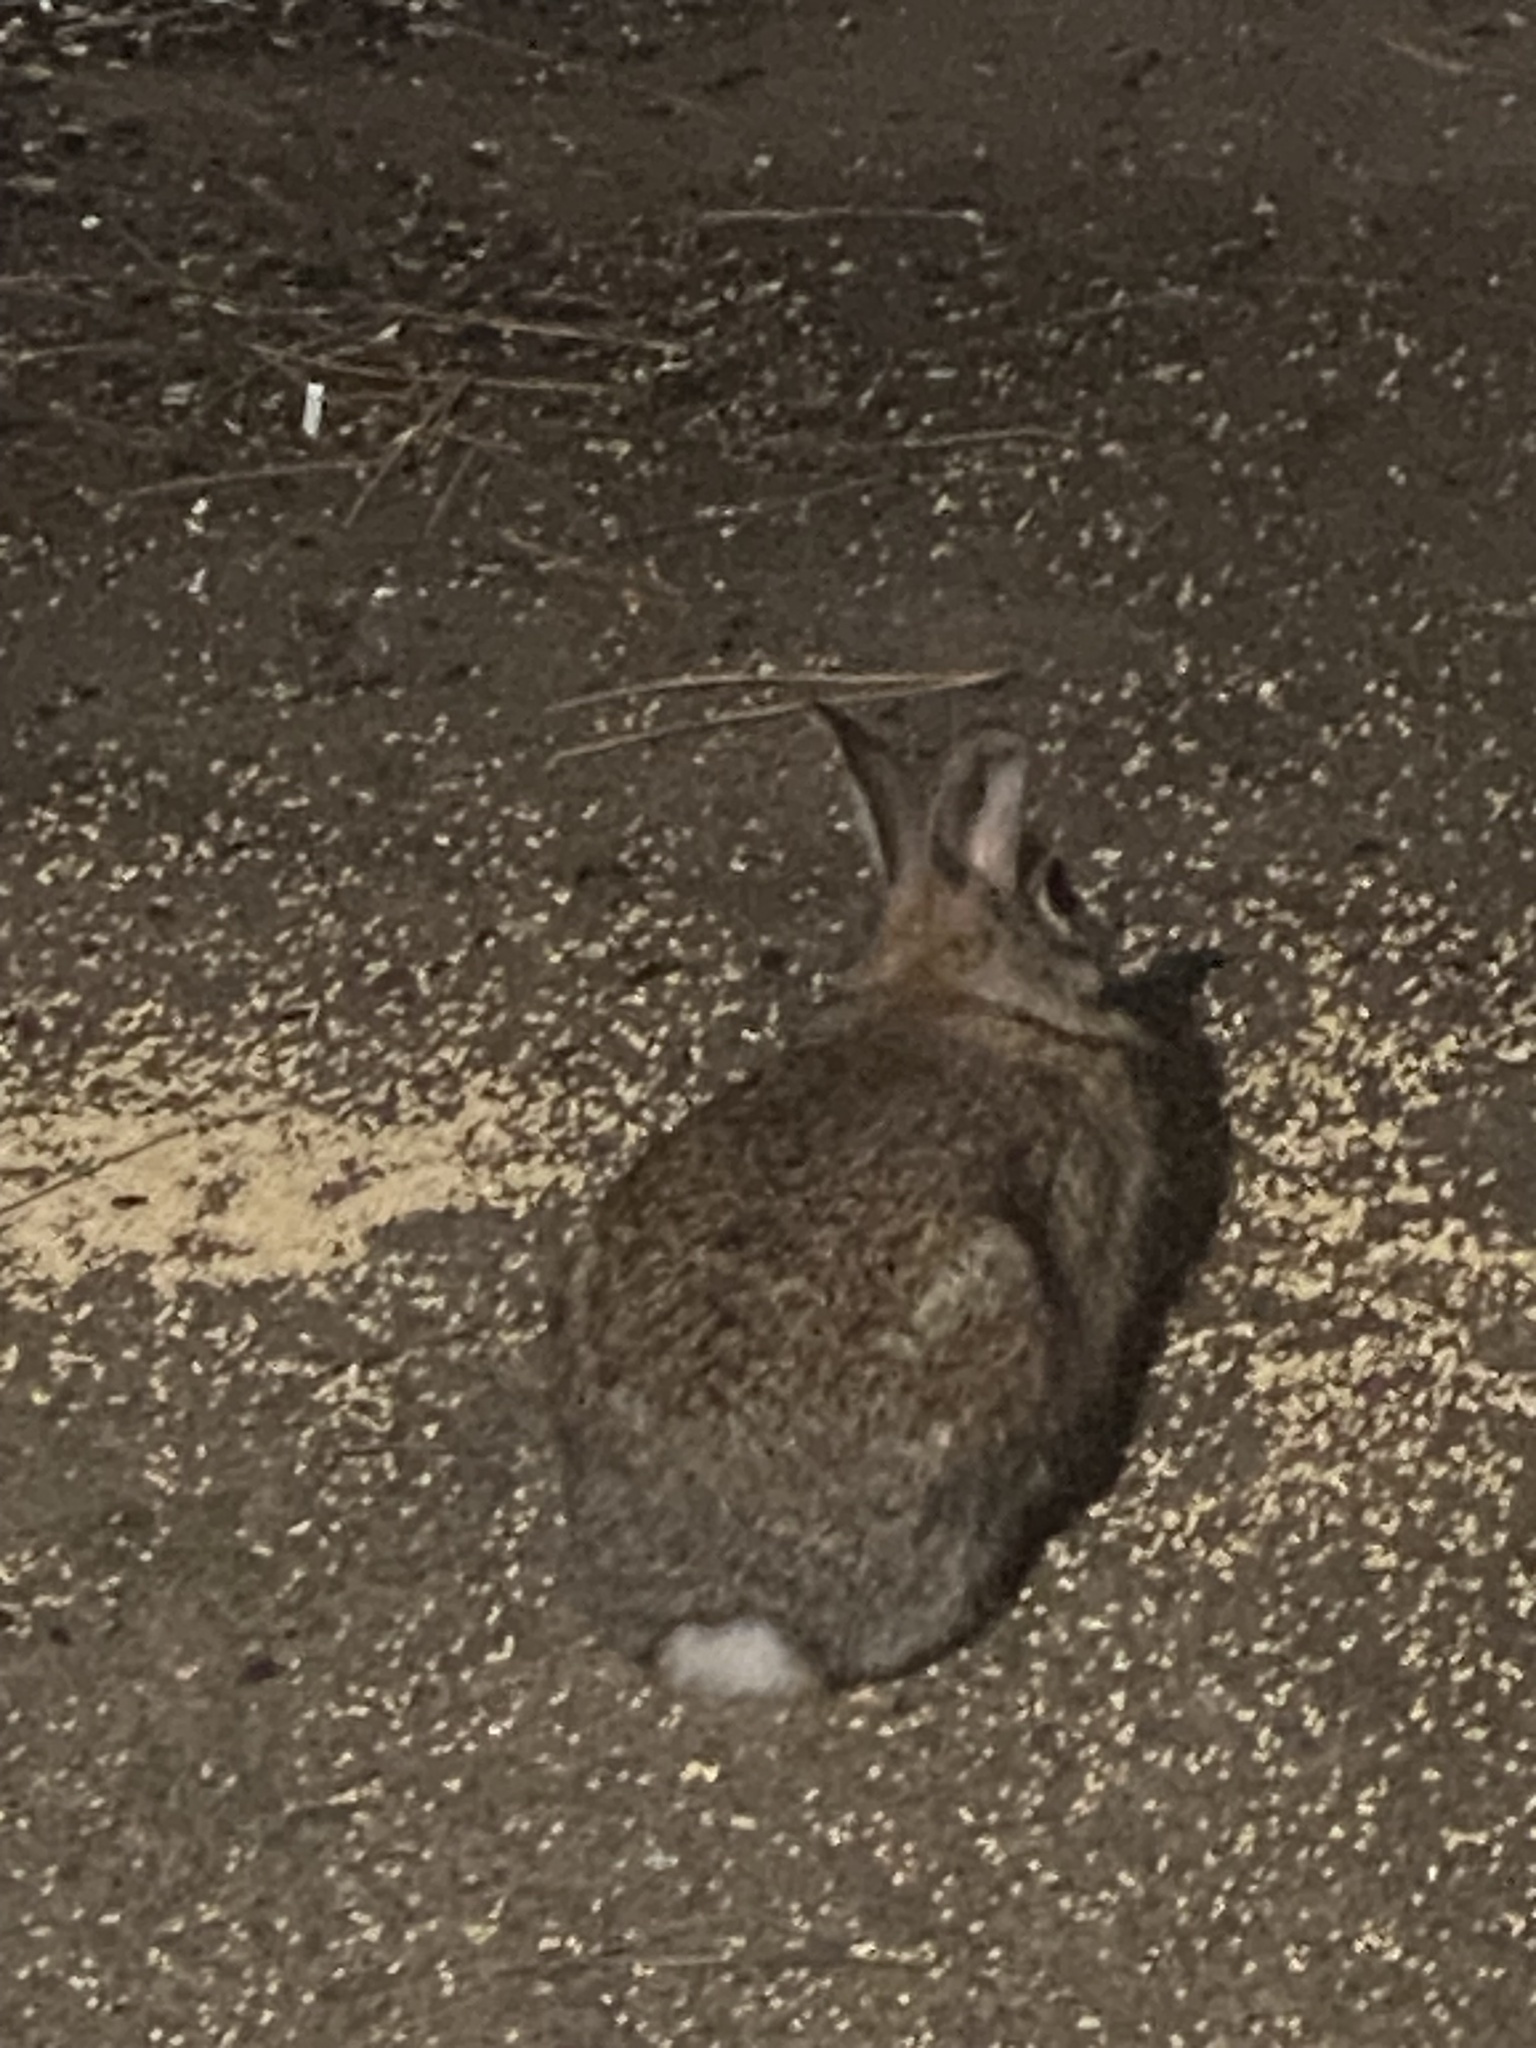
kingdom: Animalia
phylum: Chordata
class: Mammalia
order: Lagomorpha
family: Leporidae
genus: Sylvilagus
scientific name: Sylvilagus floridanus
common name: Eastern cottontail
